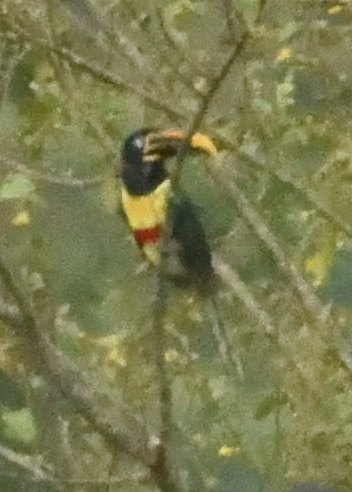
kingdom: Animalia
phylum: Chordata
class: Aves
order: Piciformes
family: Ramphastidae
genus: Pteroglossus
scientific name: Pteroglossus castanotis
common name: Chestnut-eared aracari
